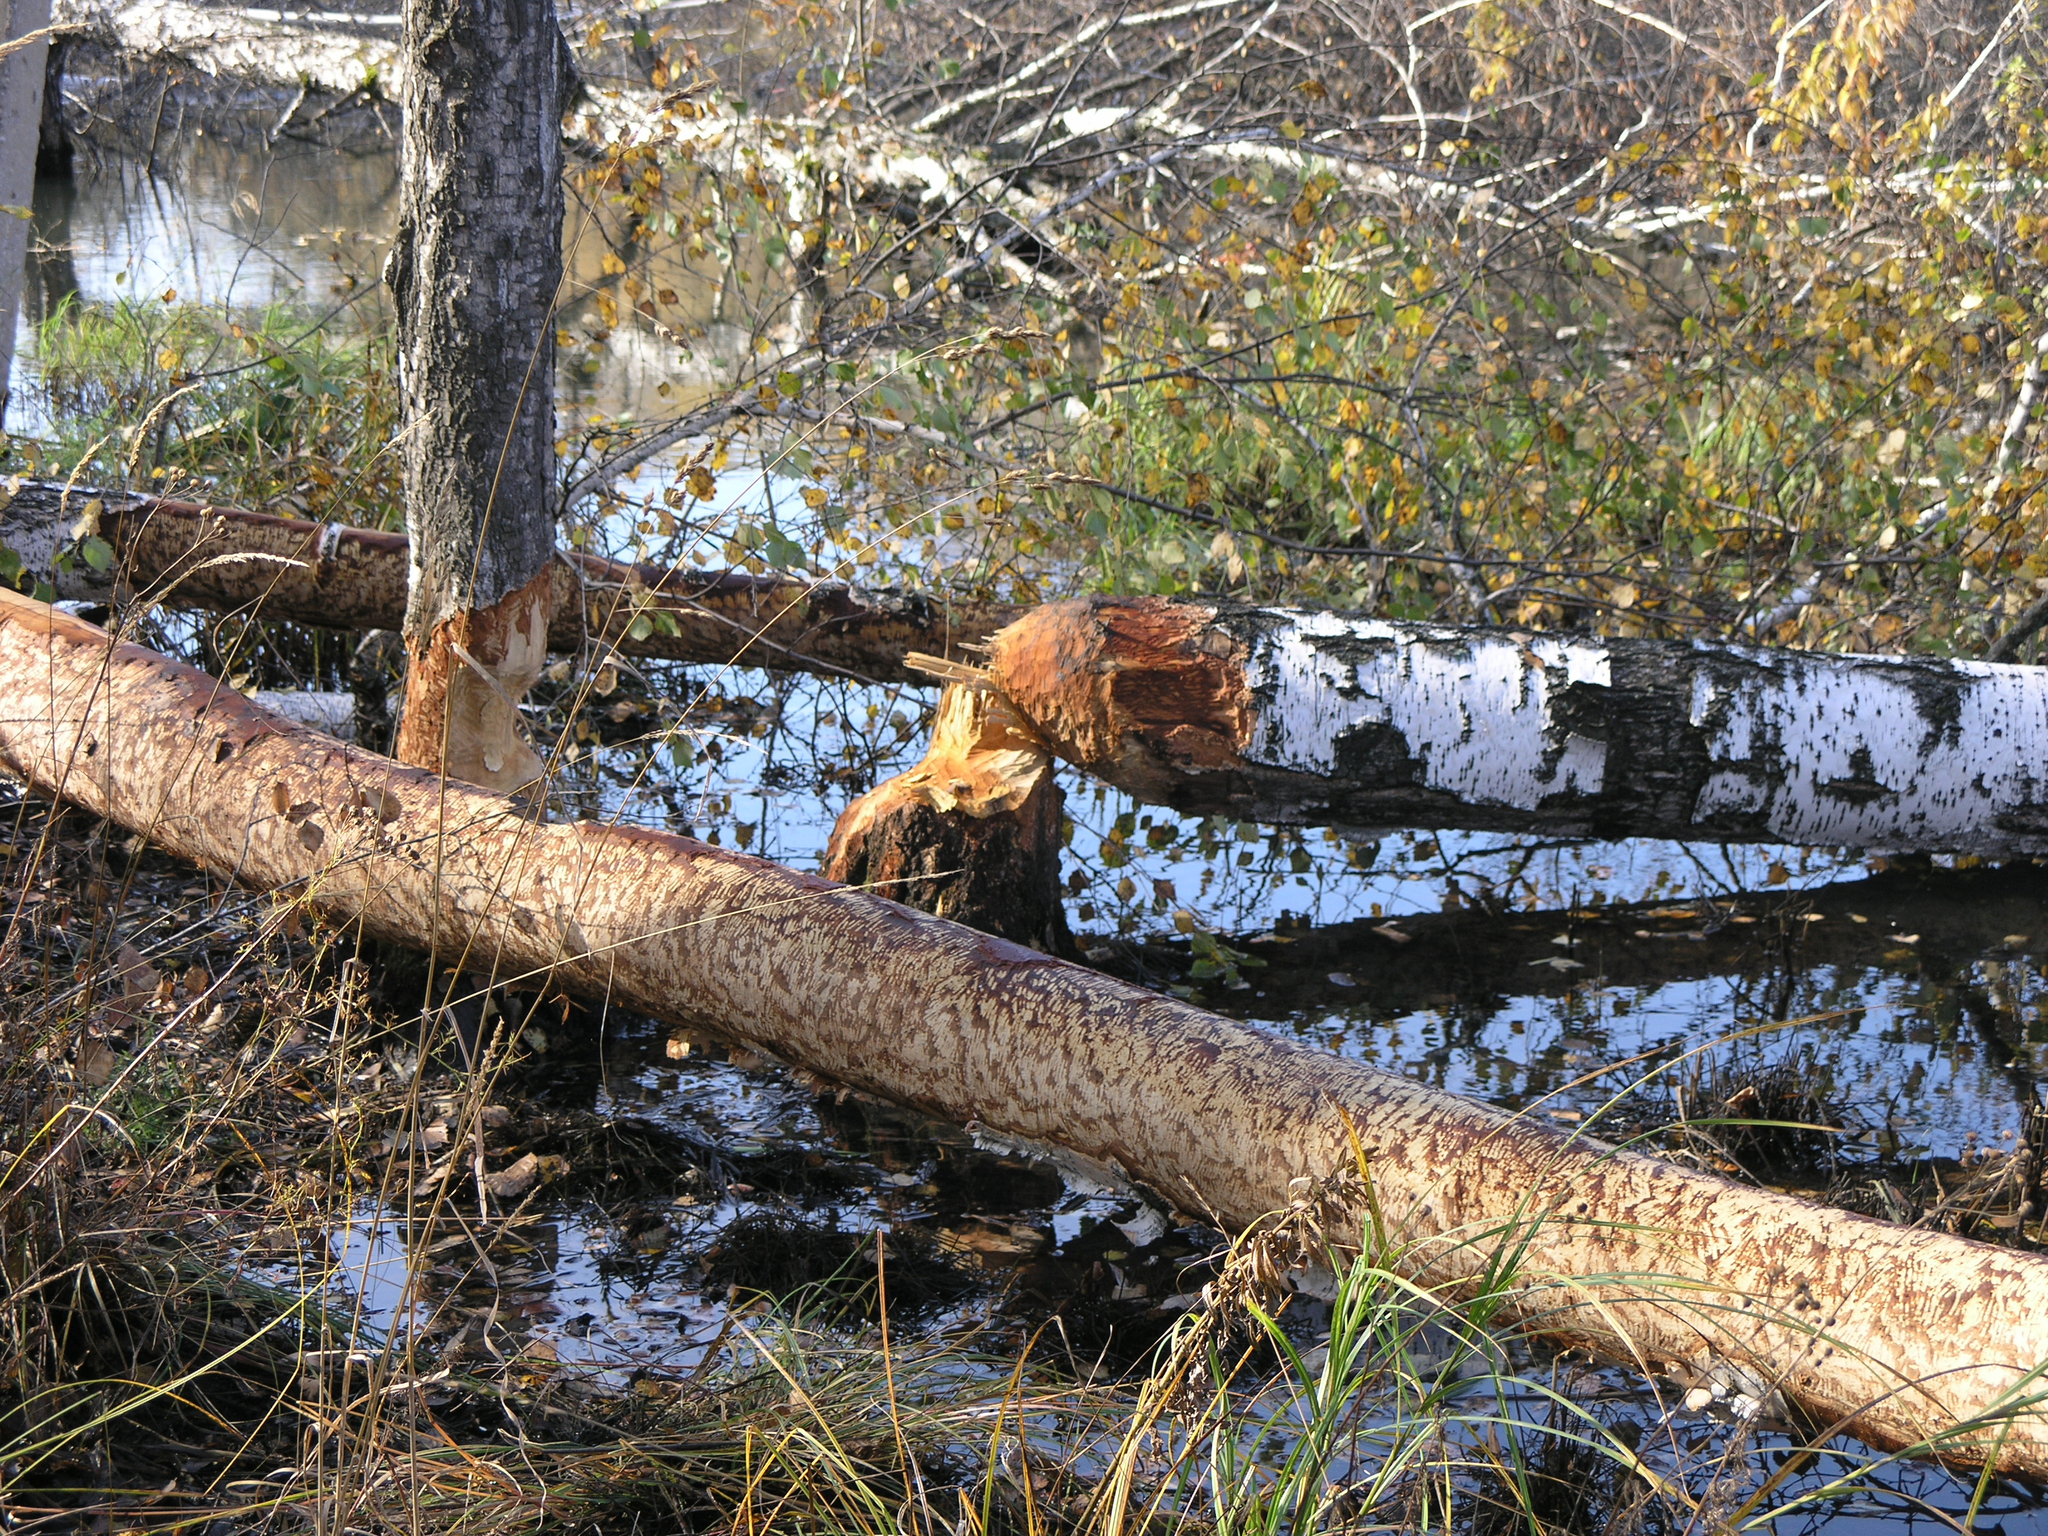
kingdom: Animalia
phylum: Chordata
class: Mammalia
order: Rodentia
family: Castoridae
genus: Castor
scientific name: Castor fiber
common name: Eurasian beaver
